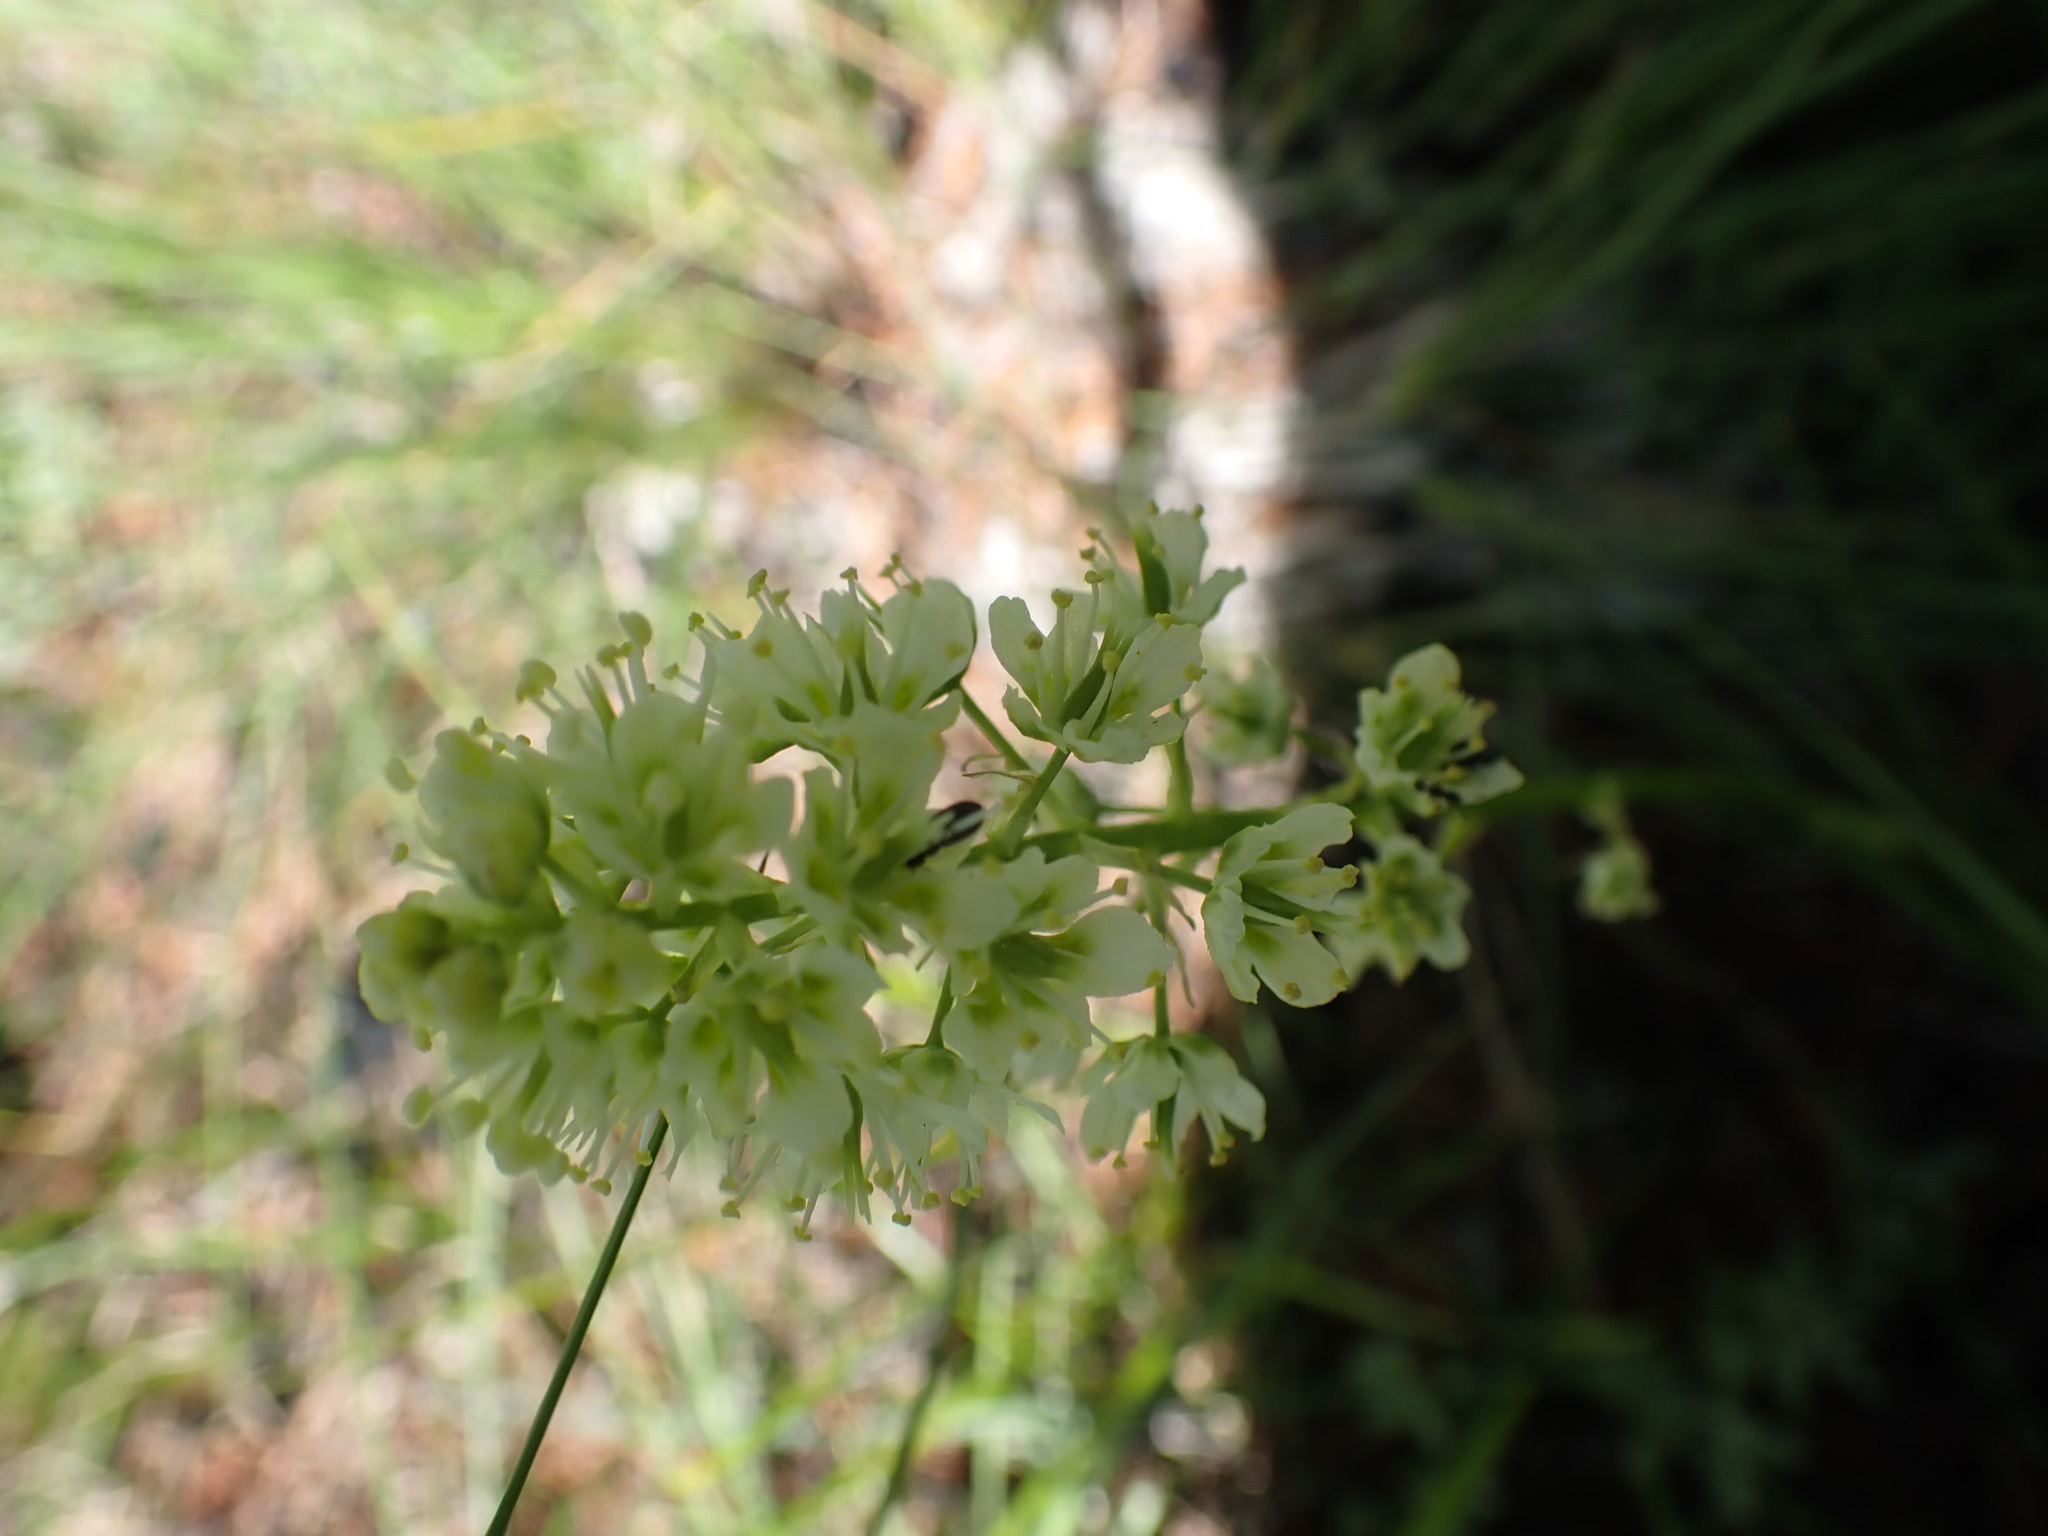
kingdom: Plantae
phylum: Tracheophyta
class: Liliopsida
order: Liliales
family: Melanthiaceae
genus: Toxicoscordion
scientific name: Toxicoscordion venenosum
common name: Meadow death camas
